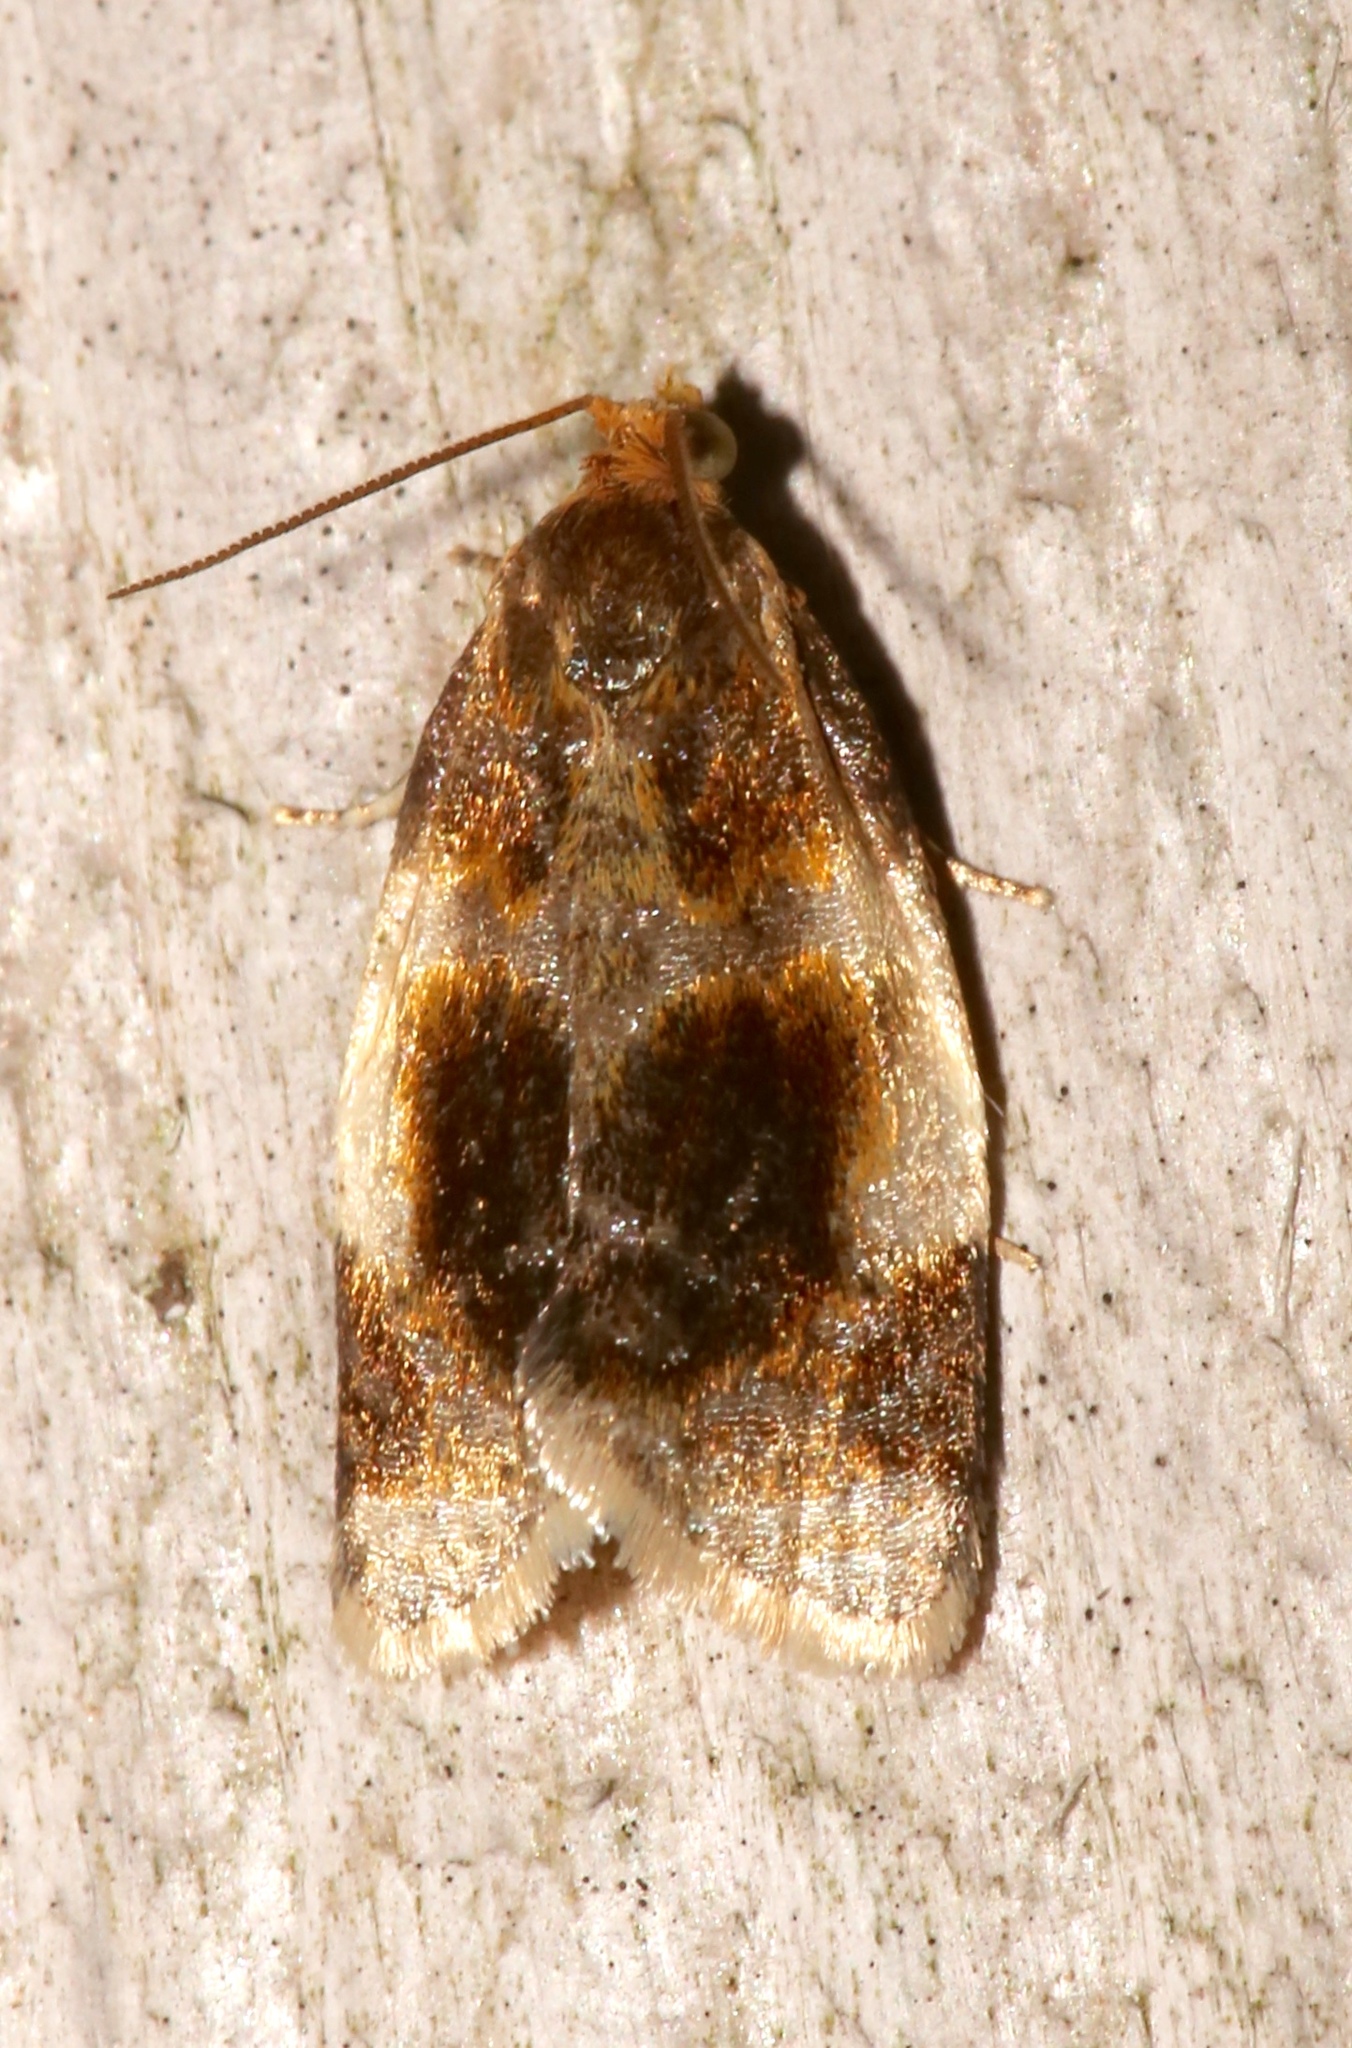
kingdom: Animalia
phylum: Arthropoda
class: Insecta
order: Lepidoptera
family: Tortricidae
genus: Clepsis
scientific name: Clepsis melaleucanus
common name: American apple tortrix
